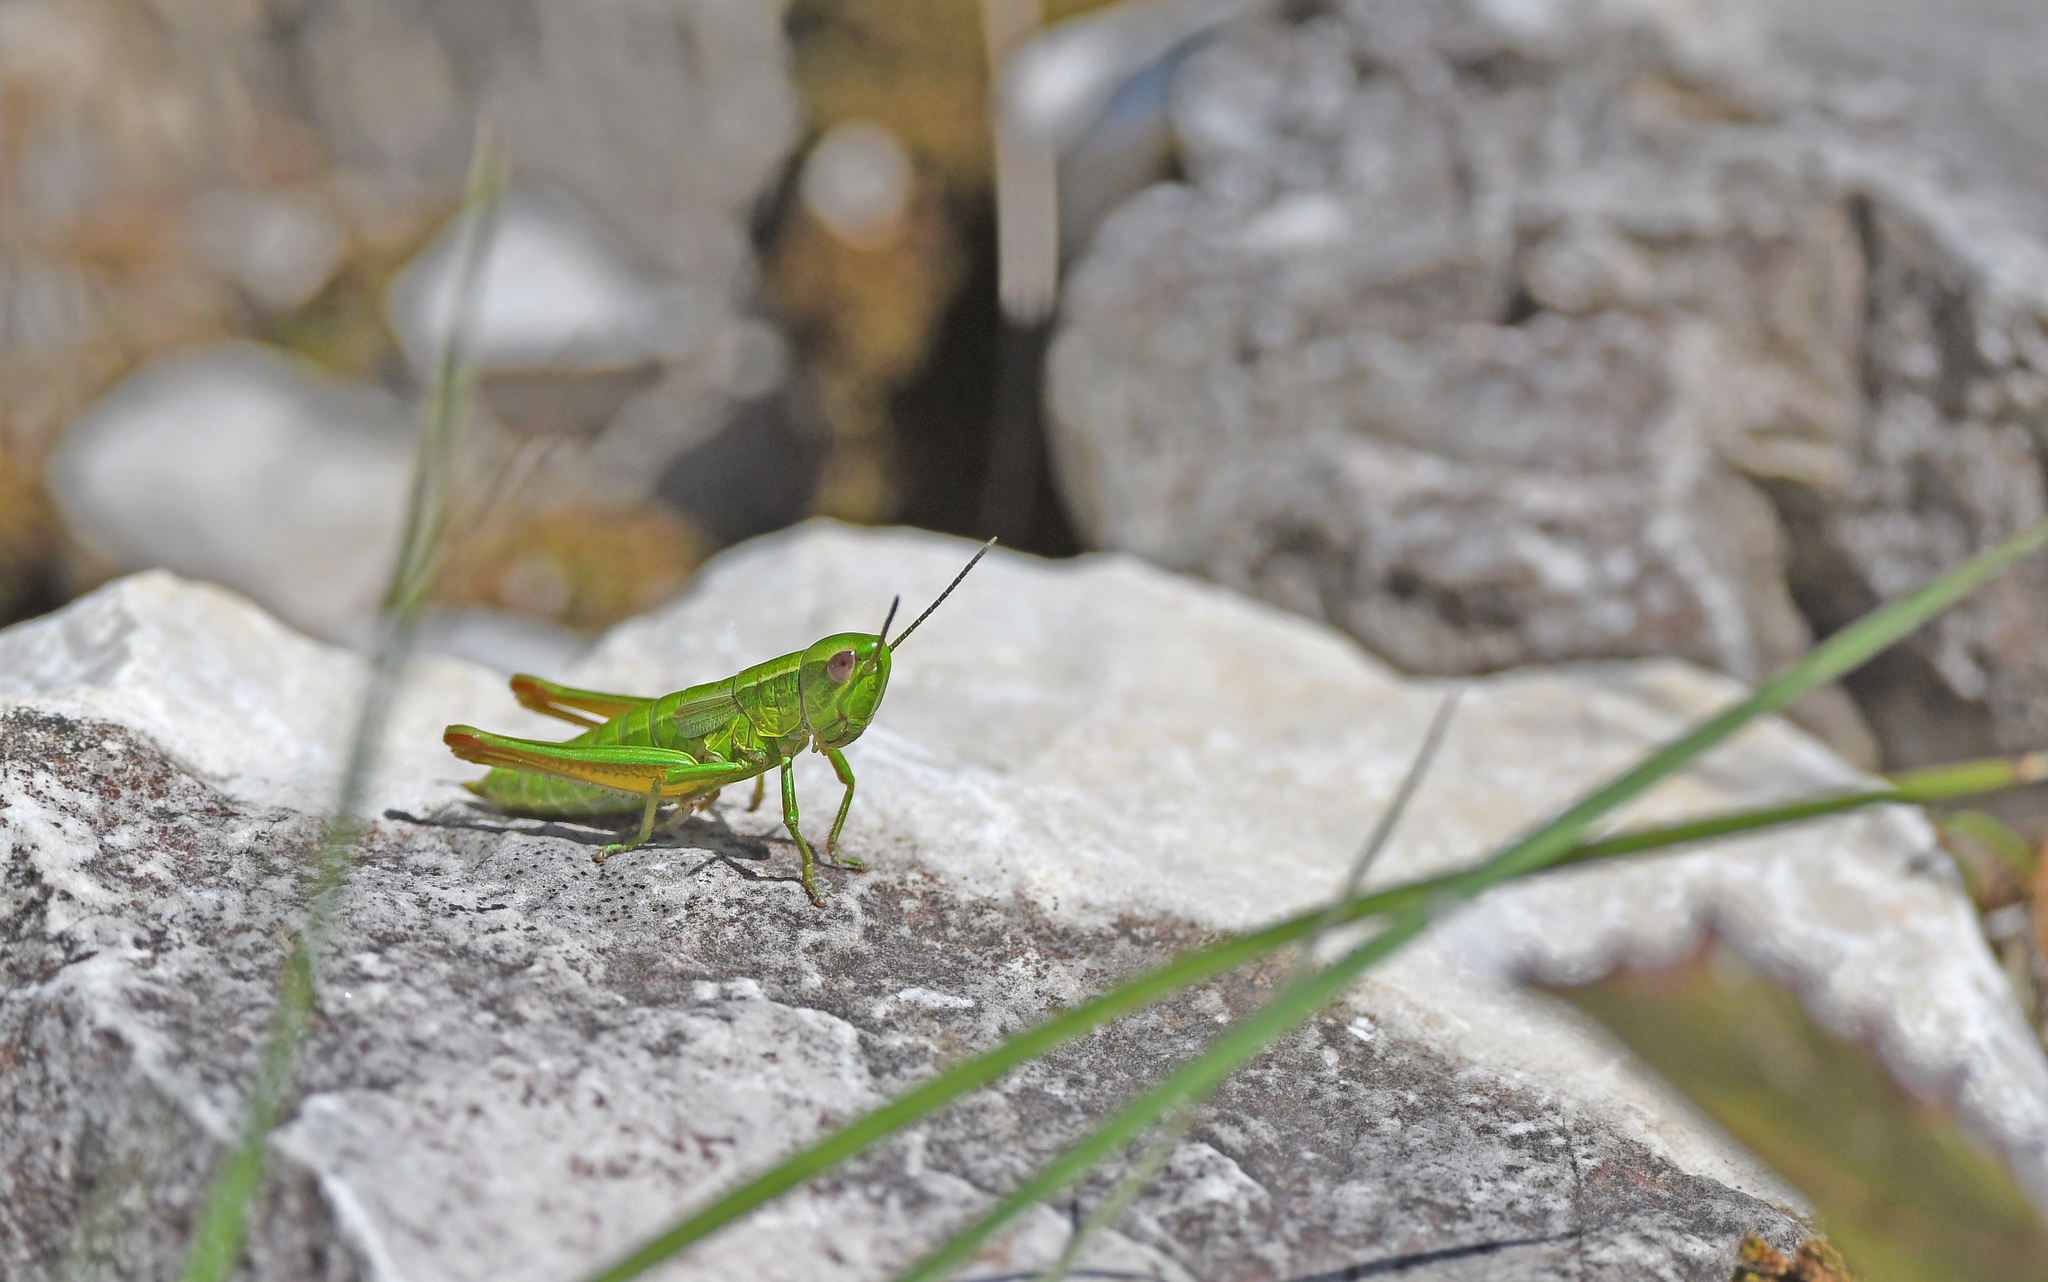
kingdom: Animalia
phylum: Arthropoda
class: Insecta
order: Orthoptera
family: Acrididae
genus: Euthystira
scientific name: Euthystira brachyptera
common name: Small gold grasshopper
